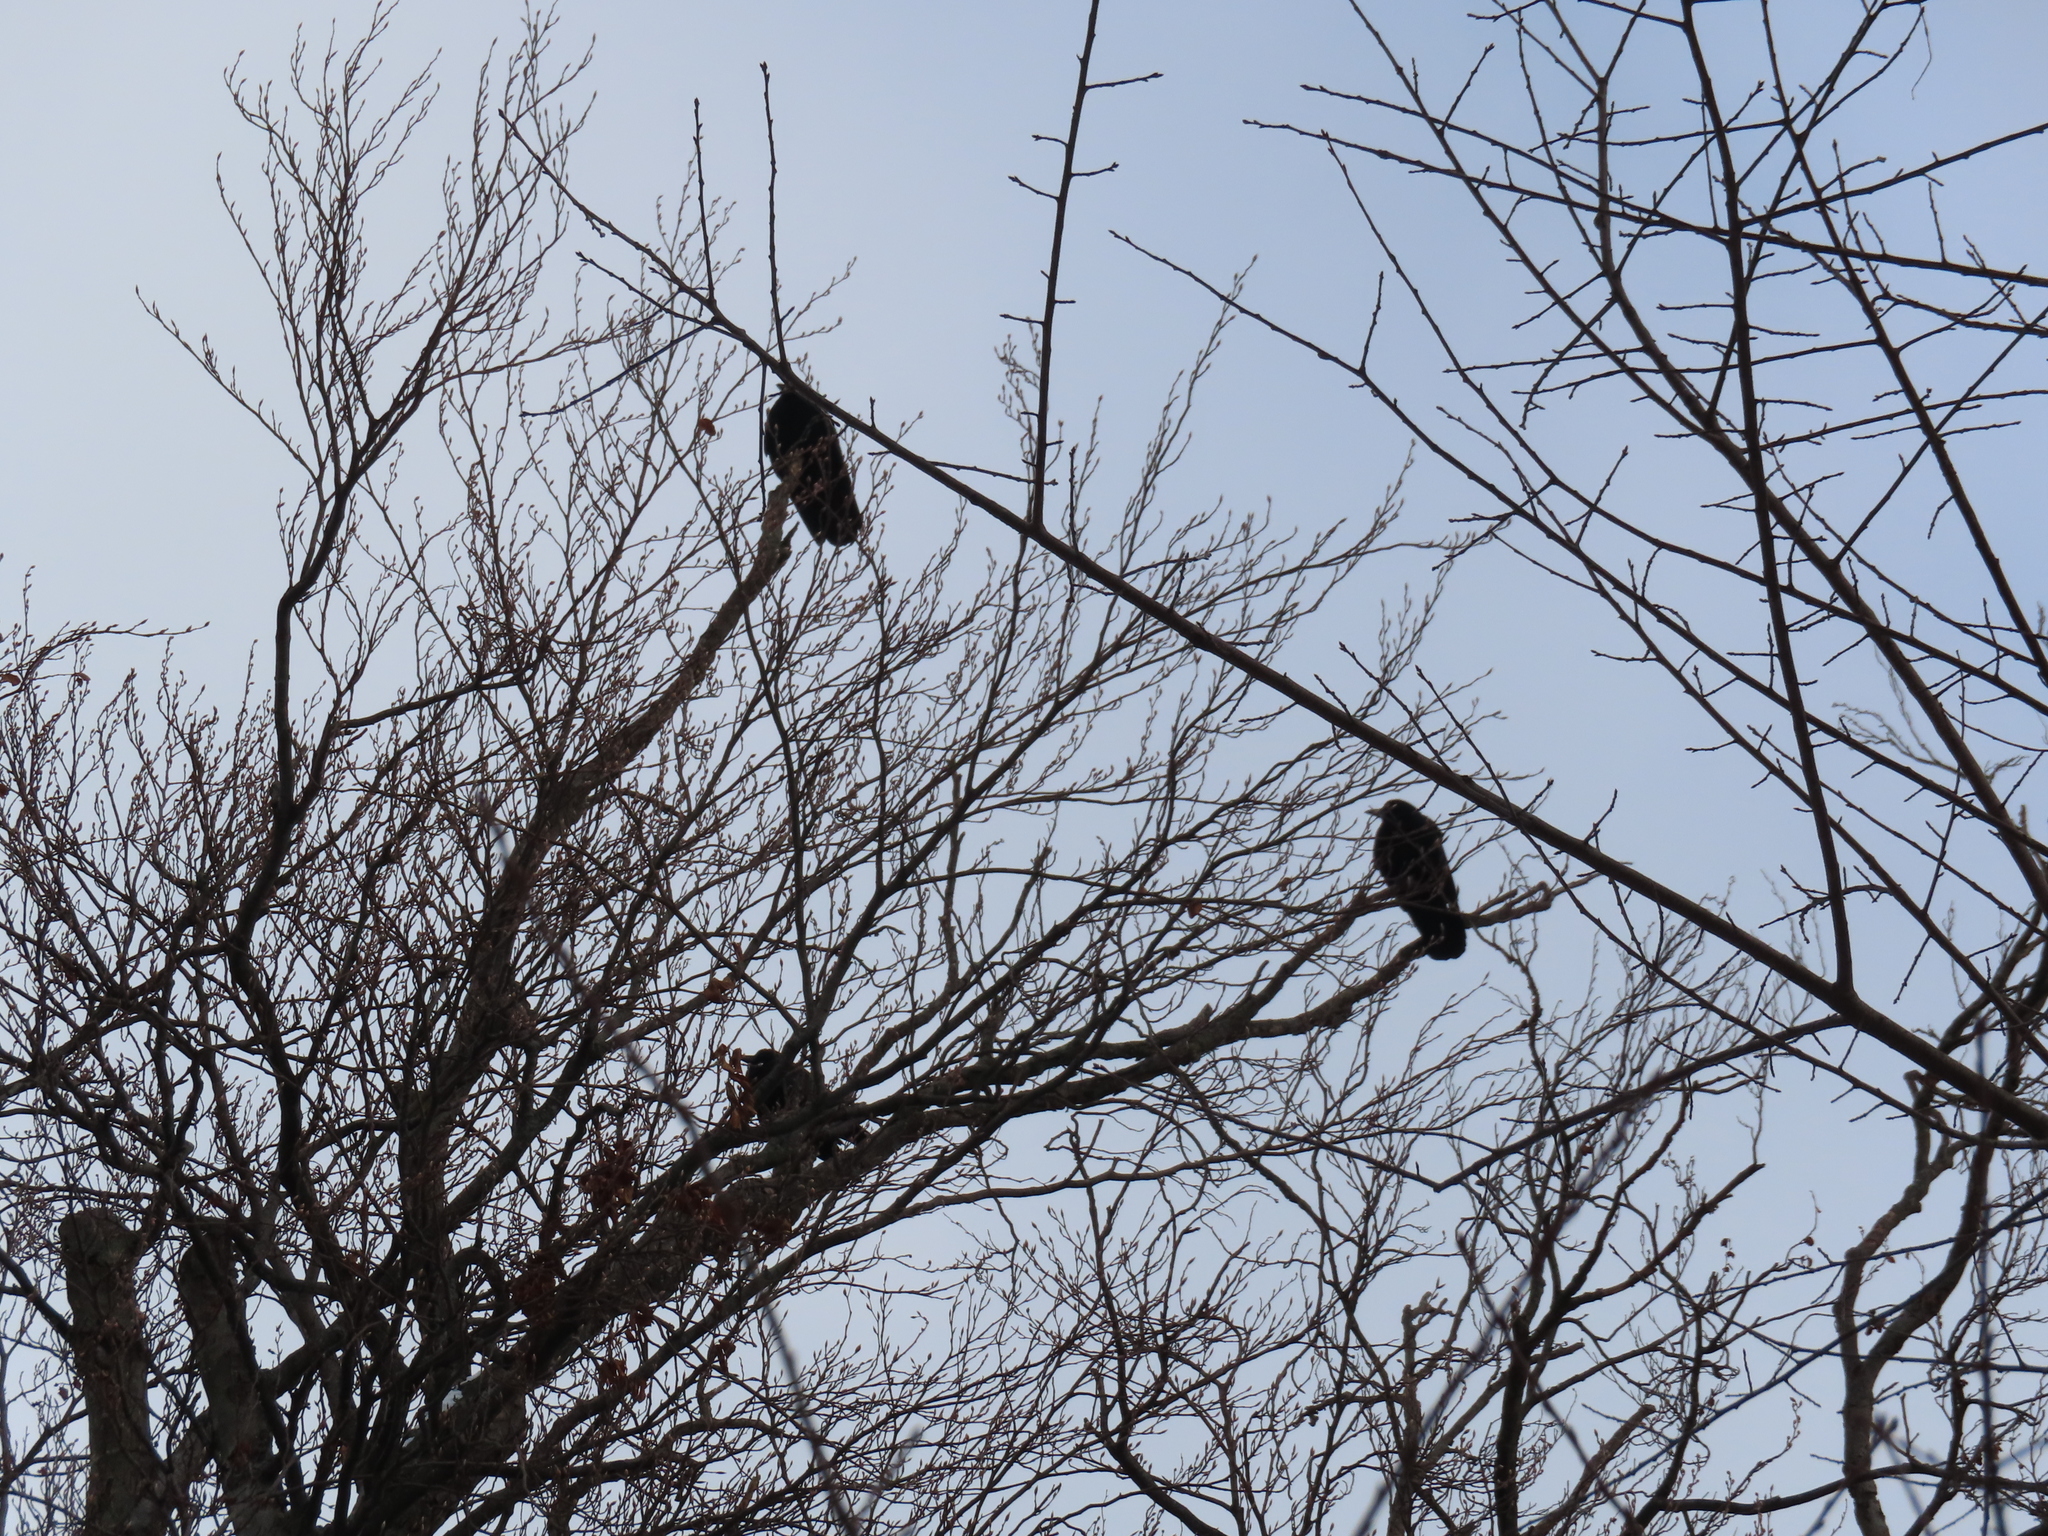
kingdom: Animalia
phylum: Chordata
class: Aves
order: Passeriformes
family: Corvidae
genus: Corvus
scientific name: Corvus brachyrhynchos
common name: American crow
